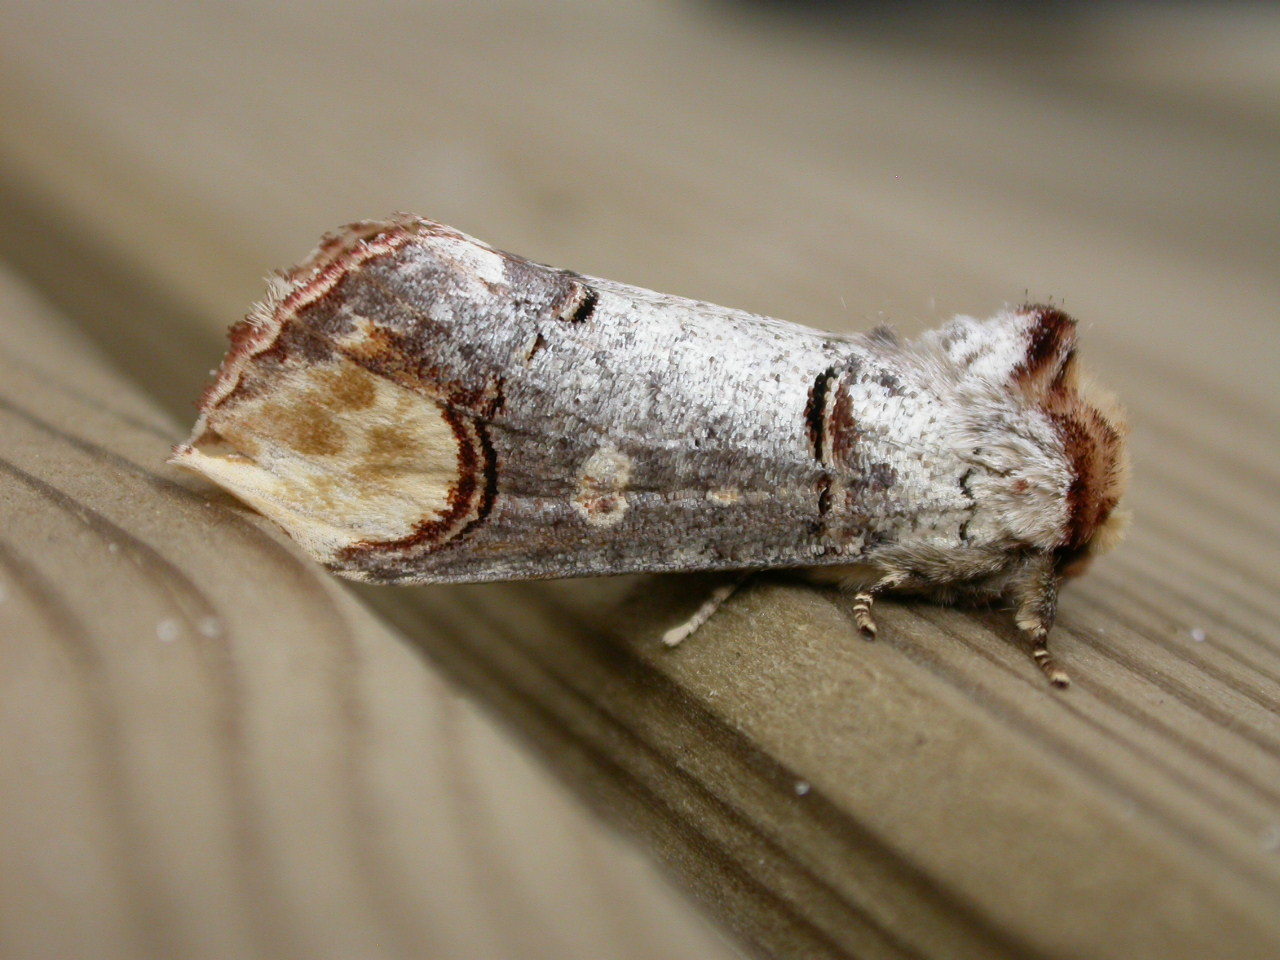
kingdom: Animalia
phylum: Arthropoda
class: Insecta
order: Lepidoptera
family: Notodontidae
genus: Phalera
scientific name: Phalera bucephala
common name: Buff-tip
